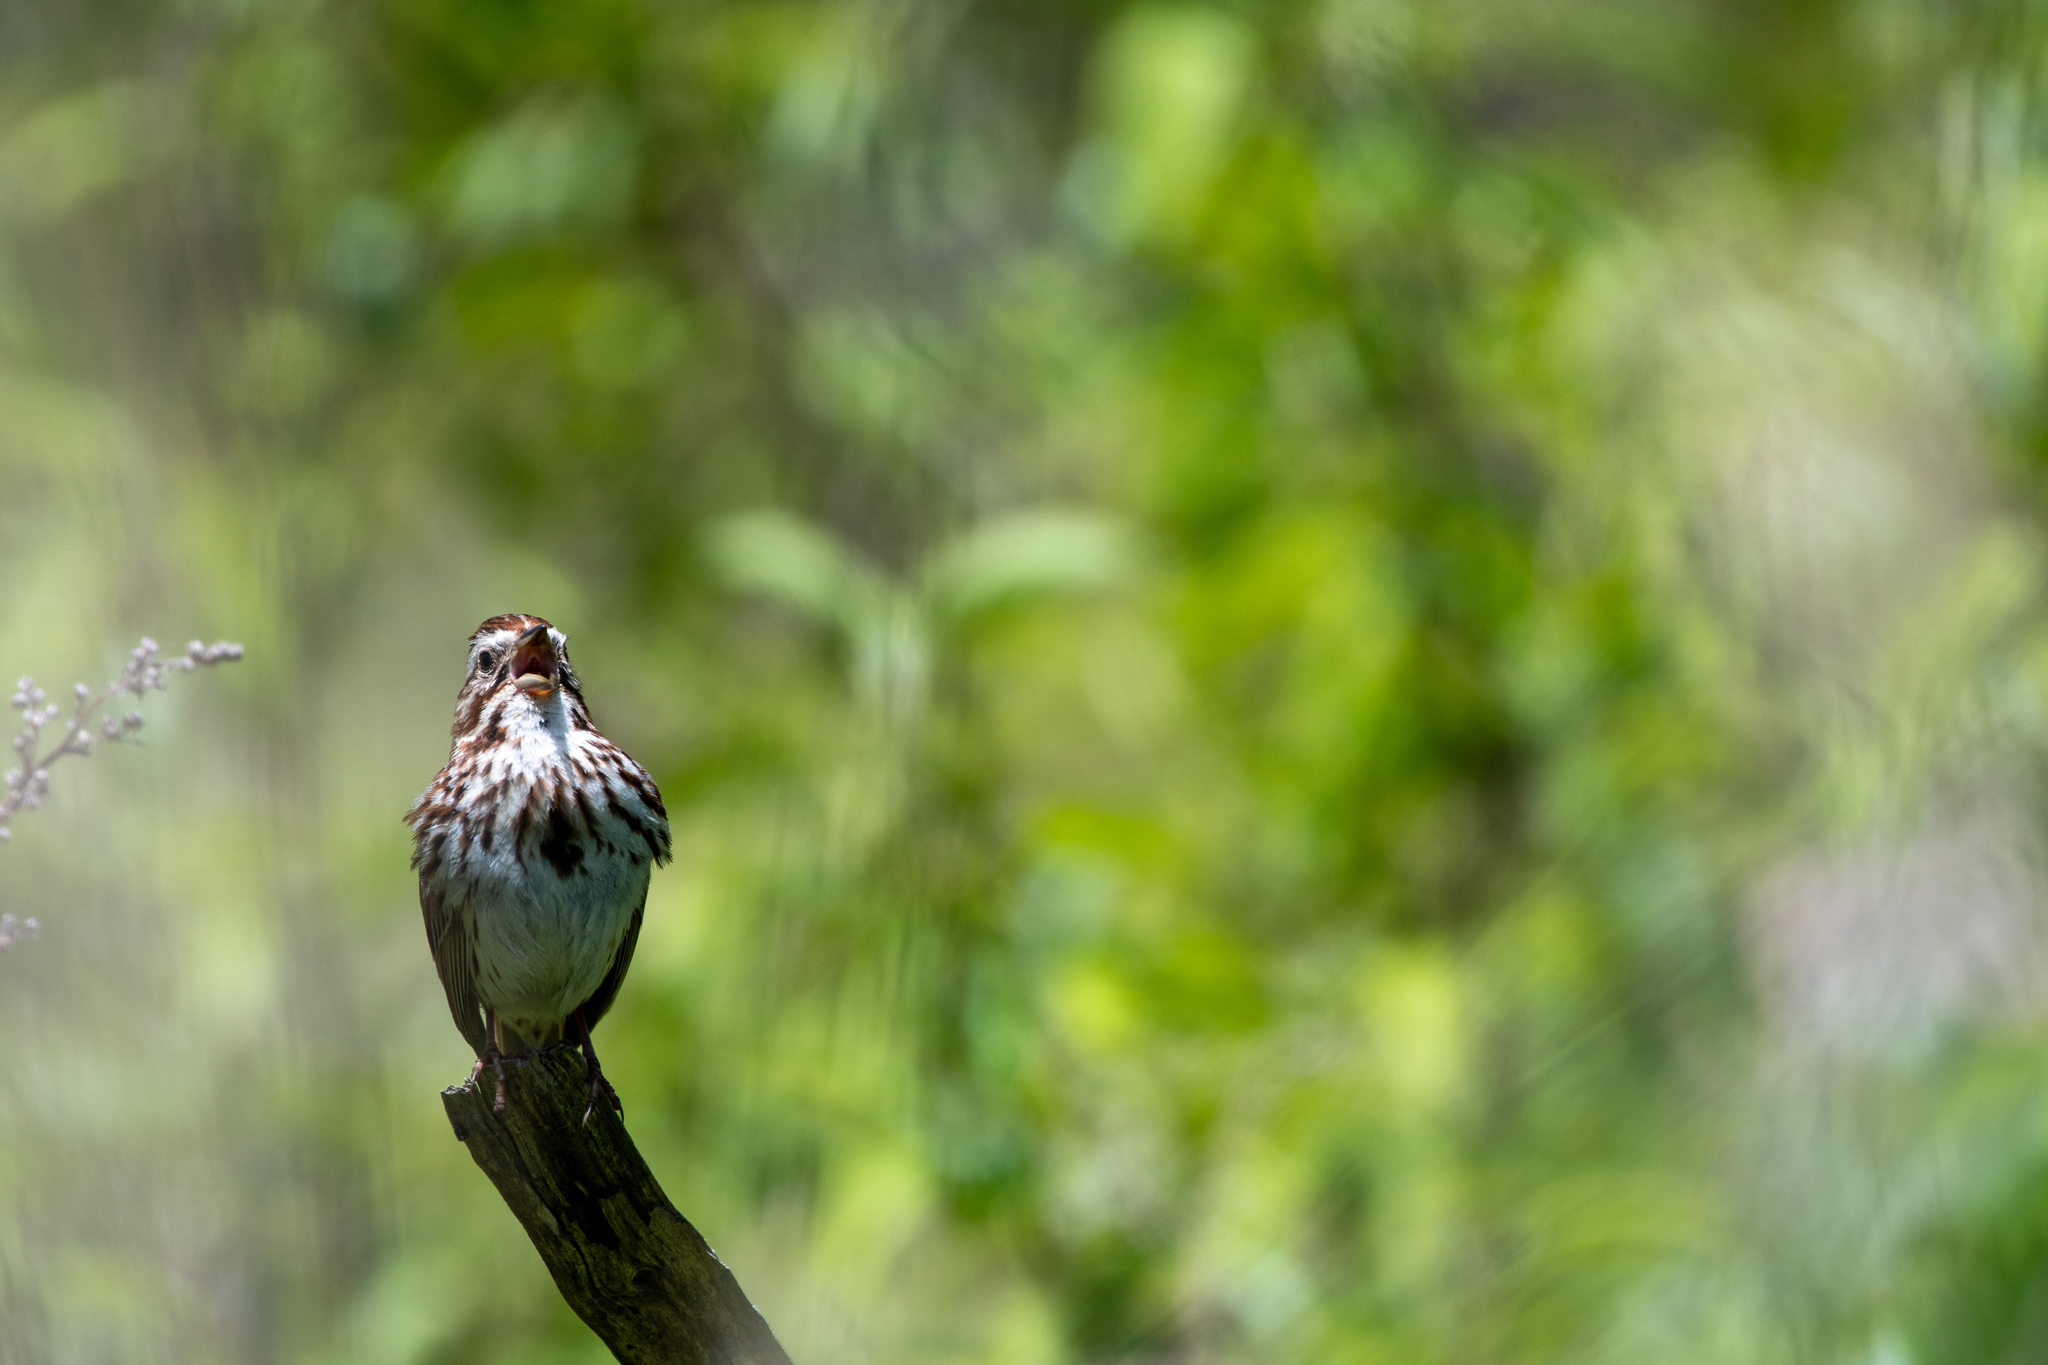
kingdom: Animalia
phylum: Chordata
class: Aves
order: Passeriformes
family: Passerellidae
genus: Melospiza
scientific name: Melospiza melodia
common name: Song sparrow
